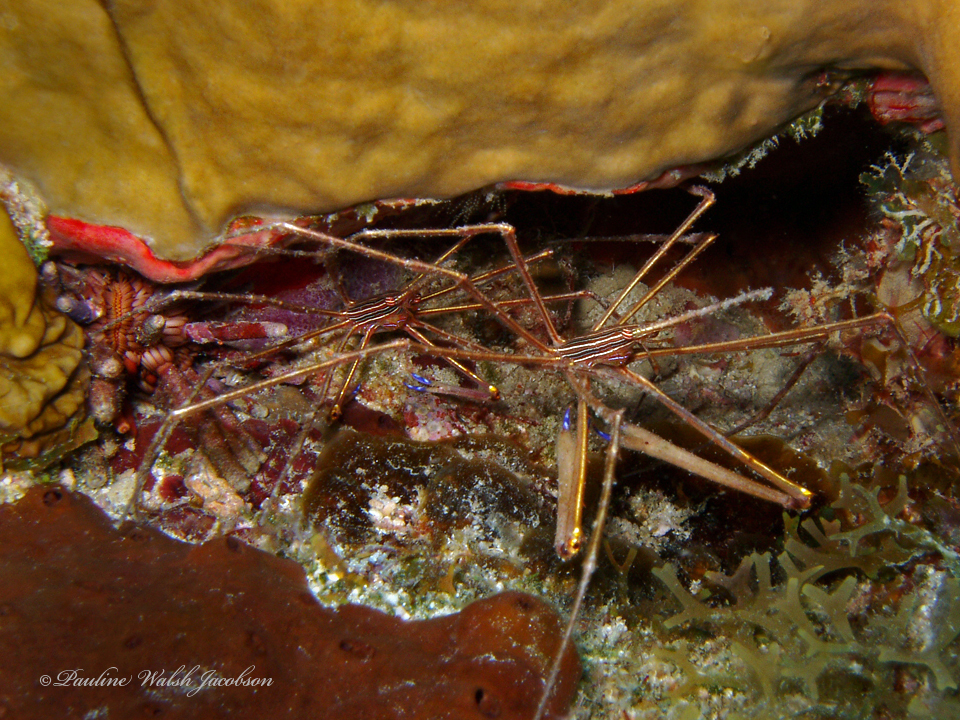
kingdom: Animalia
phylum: Arthropoda
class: Malacostraca
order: Decapoda
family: Inachoididae
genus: Stenorhynchus
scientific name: Stenorhynchus seticornis
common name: Arrow crab
